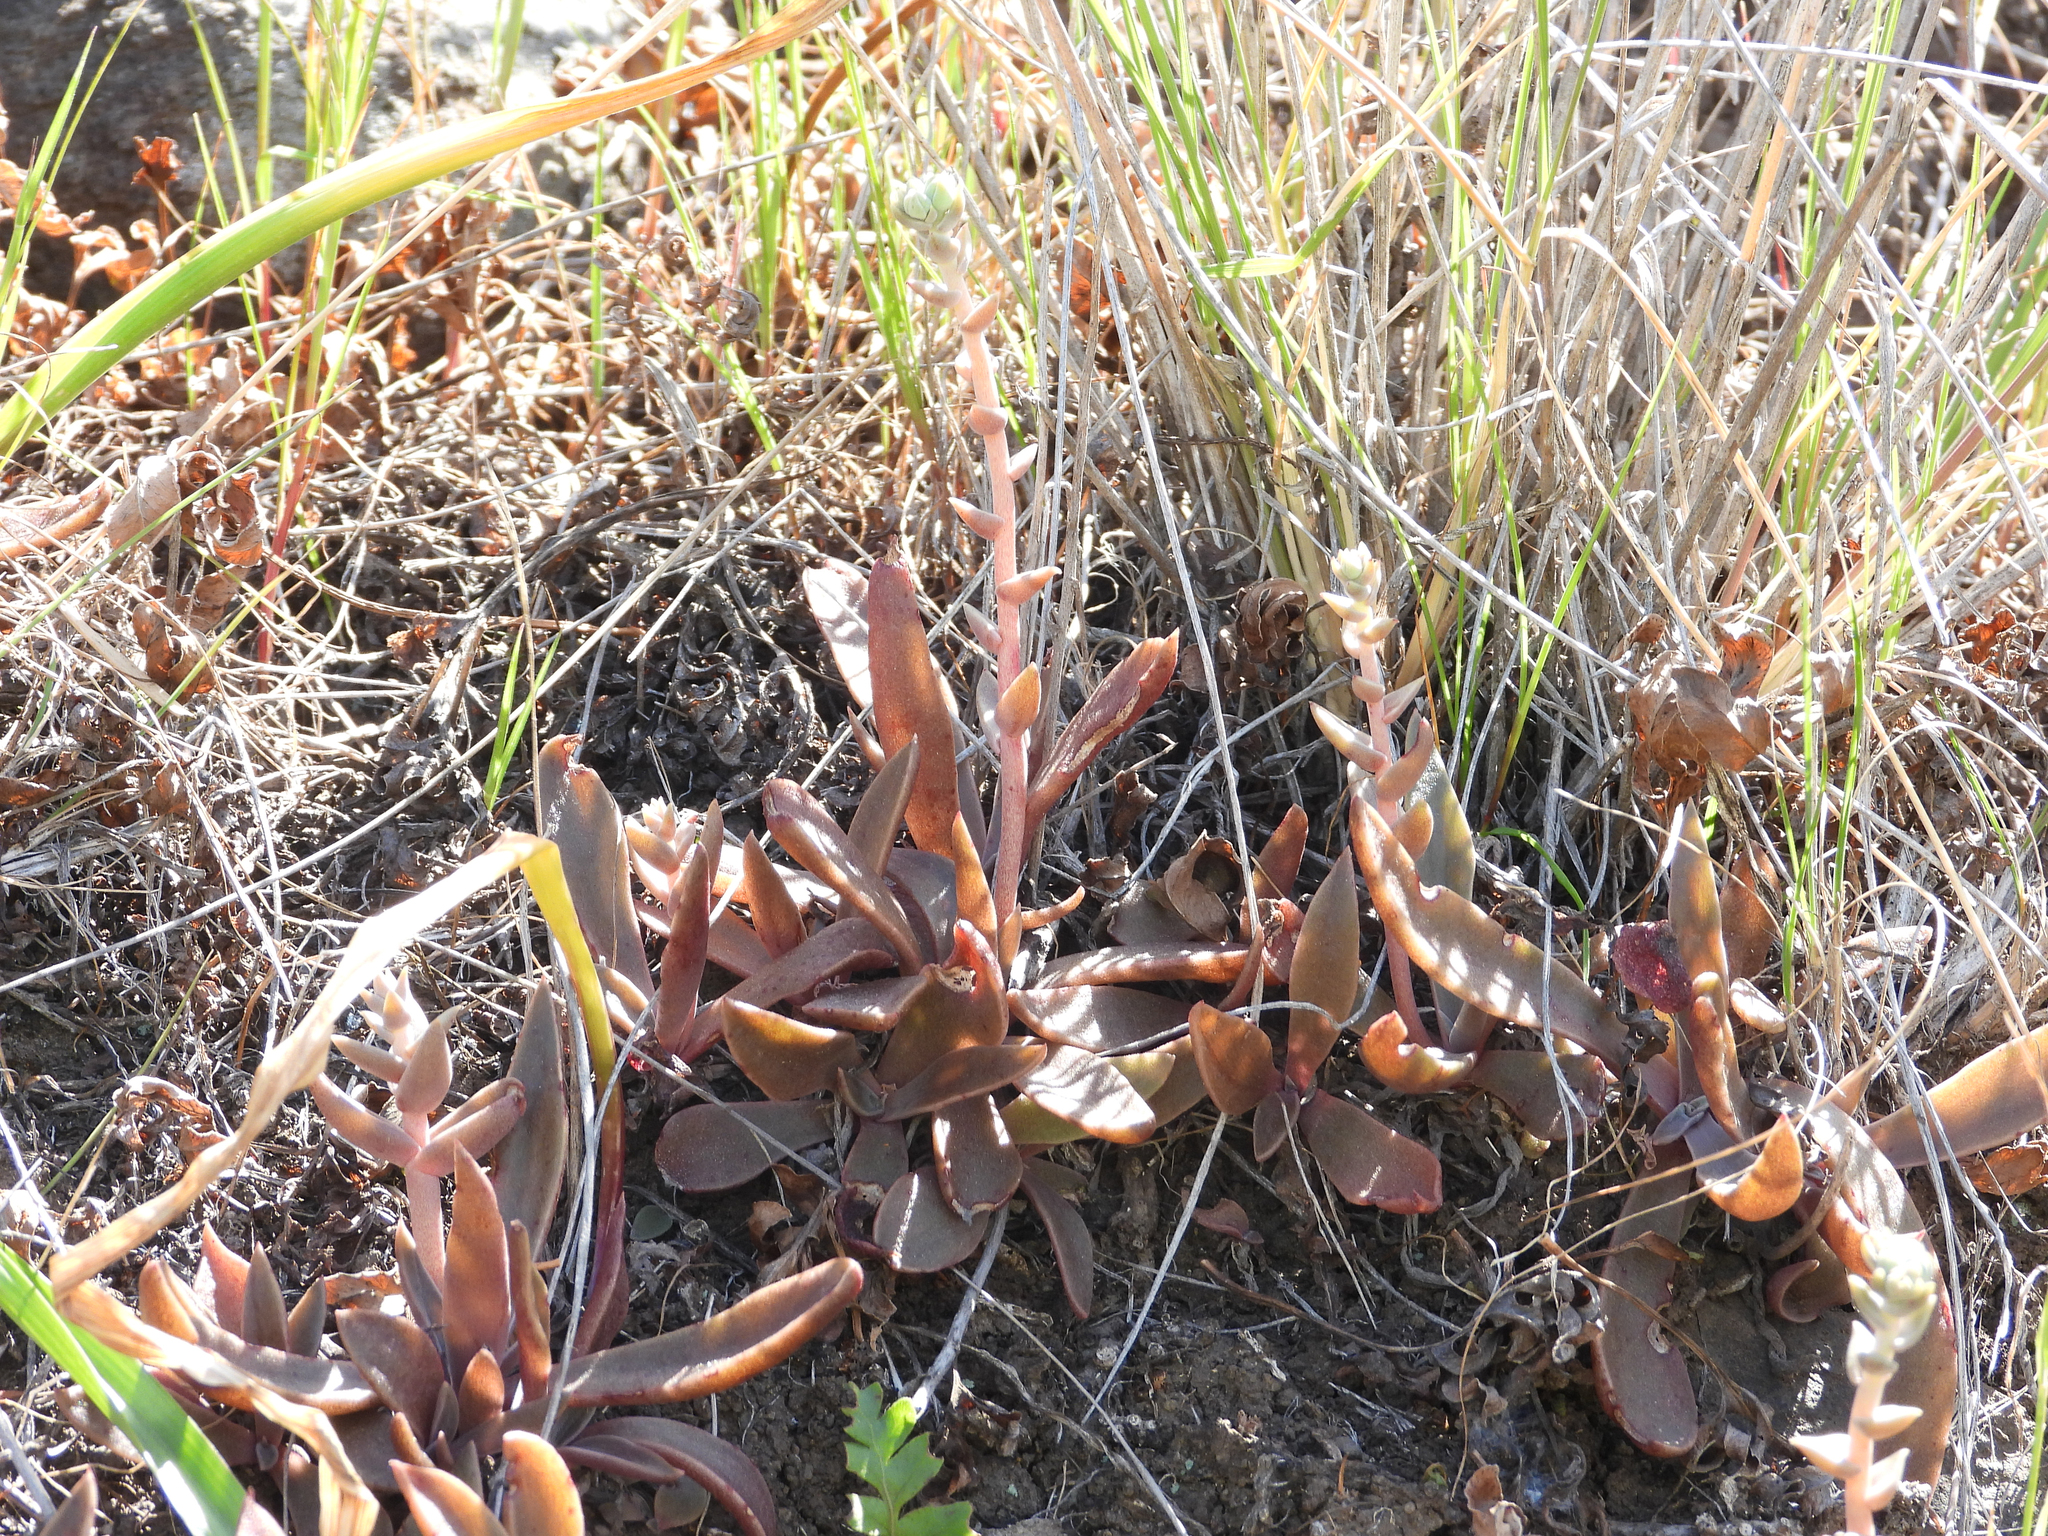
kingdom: Plantae
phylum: Tracheophyta
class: Magnoliopsida
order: Saxifragales
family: Crassulaceae
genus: Dudleya
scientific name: Dudleya parva
